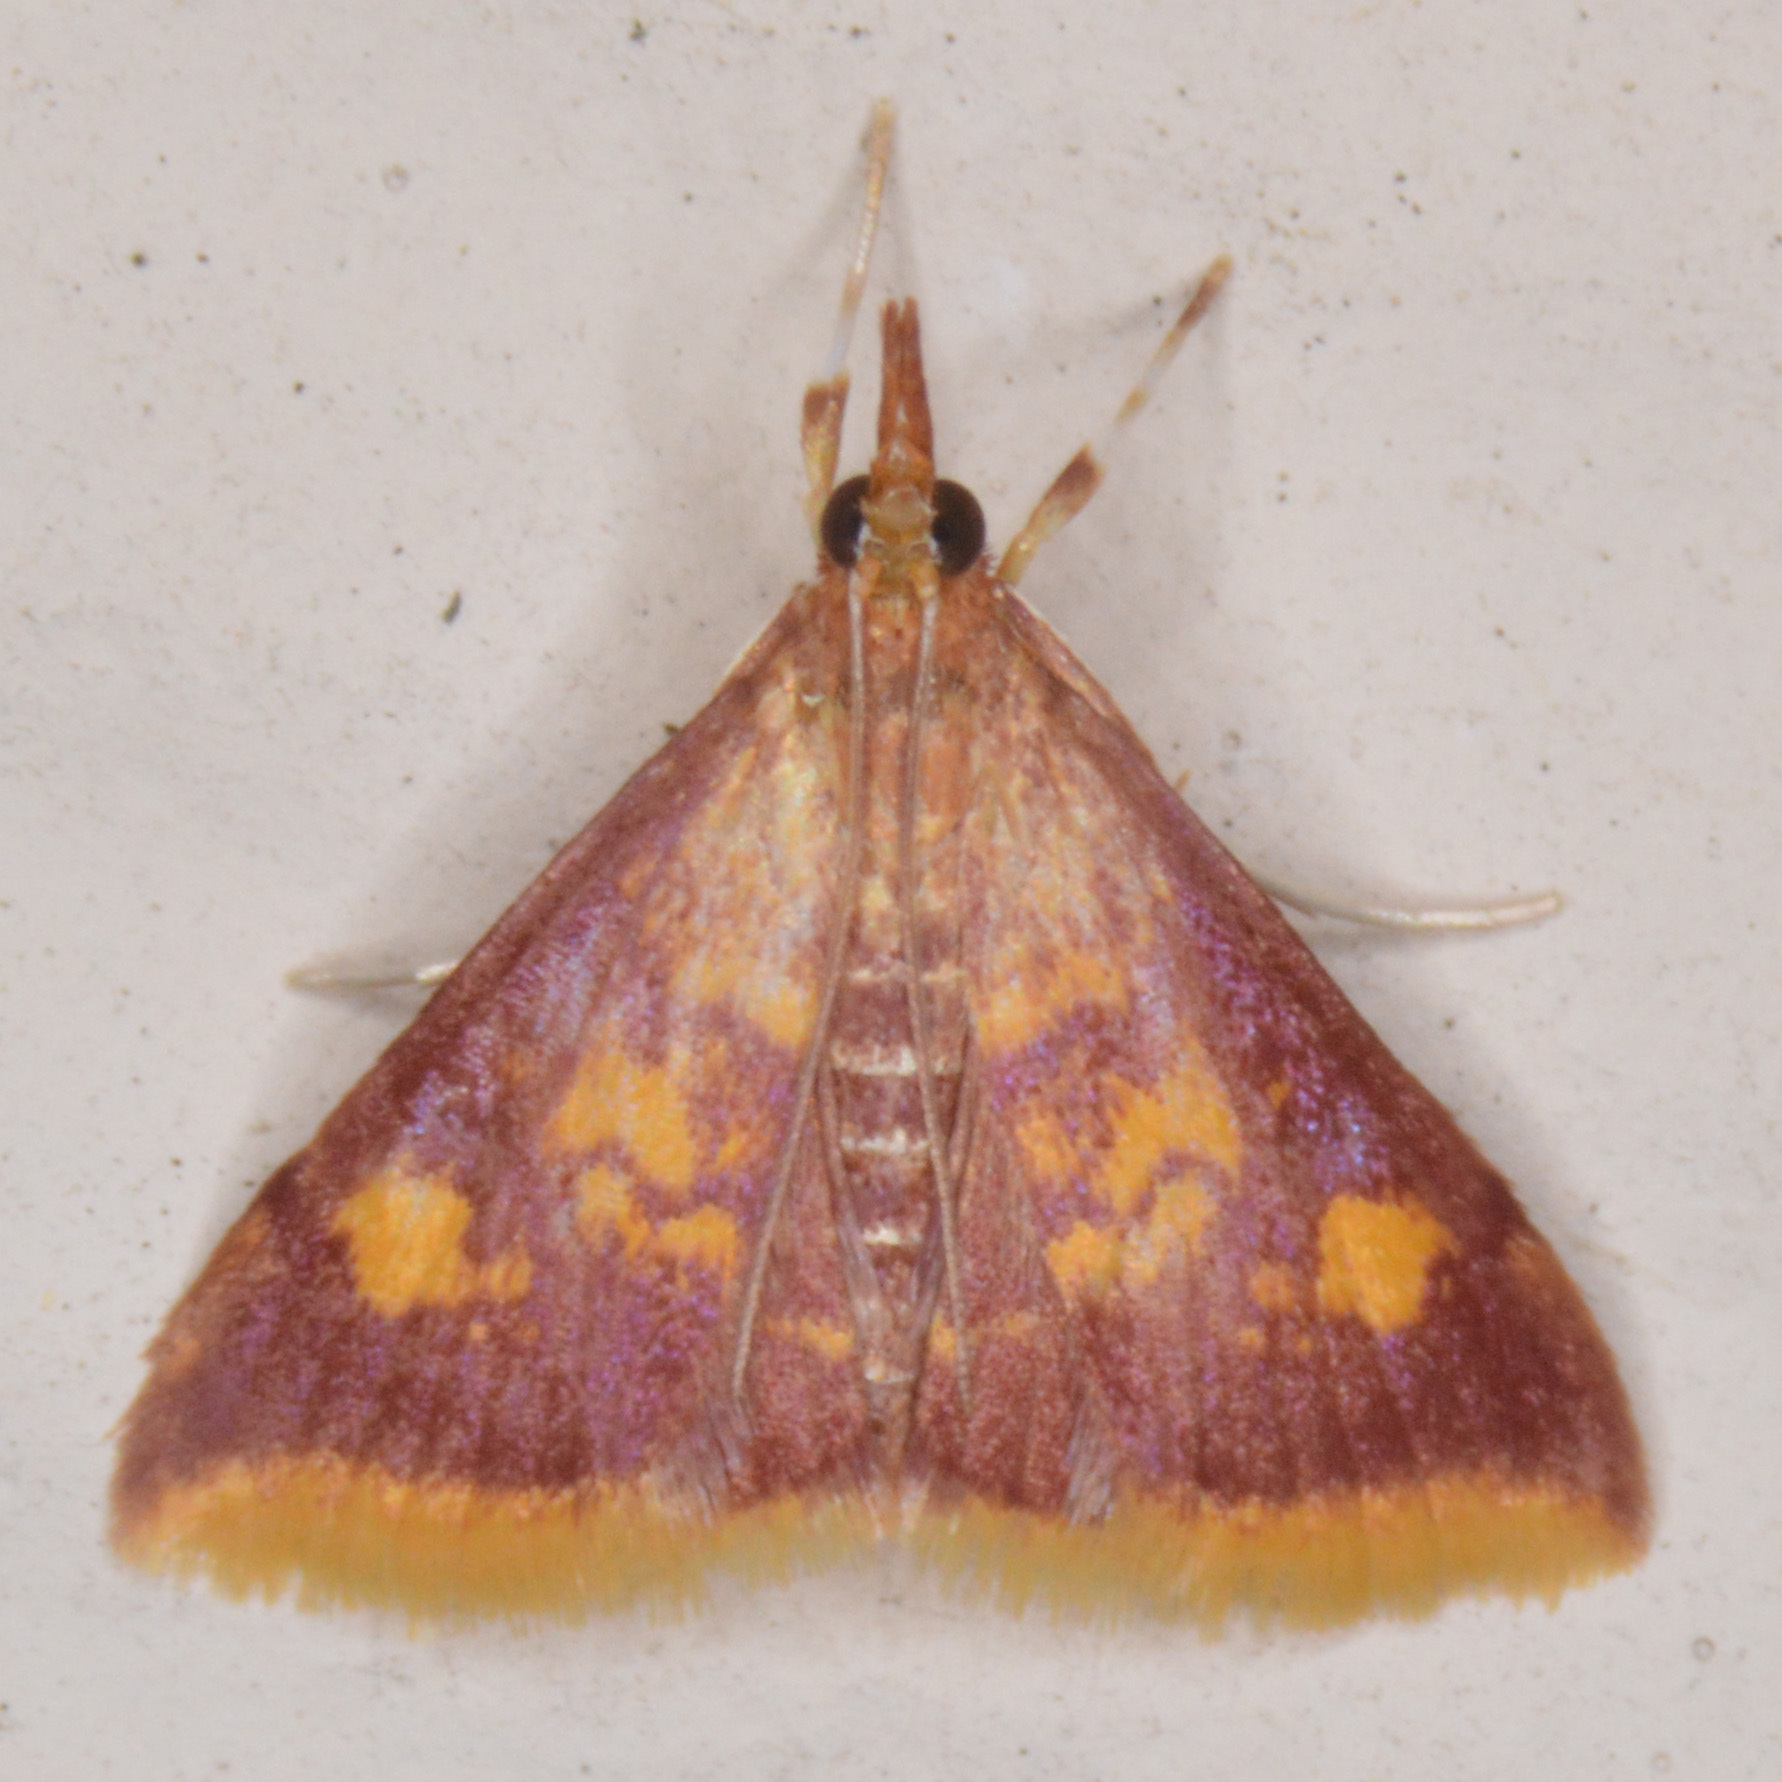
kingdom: Animalia
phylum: Arthropoda
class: Insecta
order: Lepidoptera
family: Crambidae
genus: Pyrausta
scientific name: Pyrausta acrionalis
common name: Mint-loving pyrausta moth
